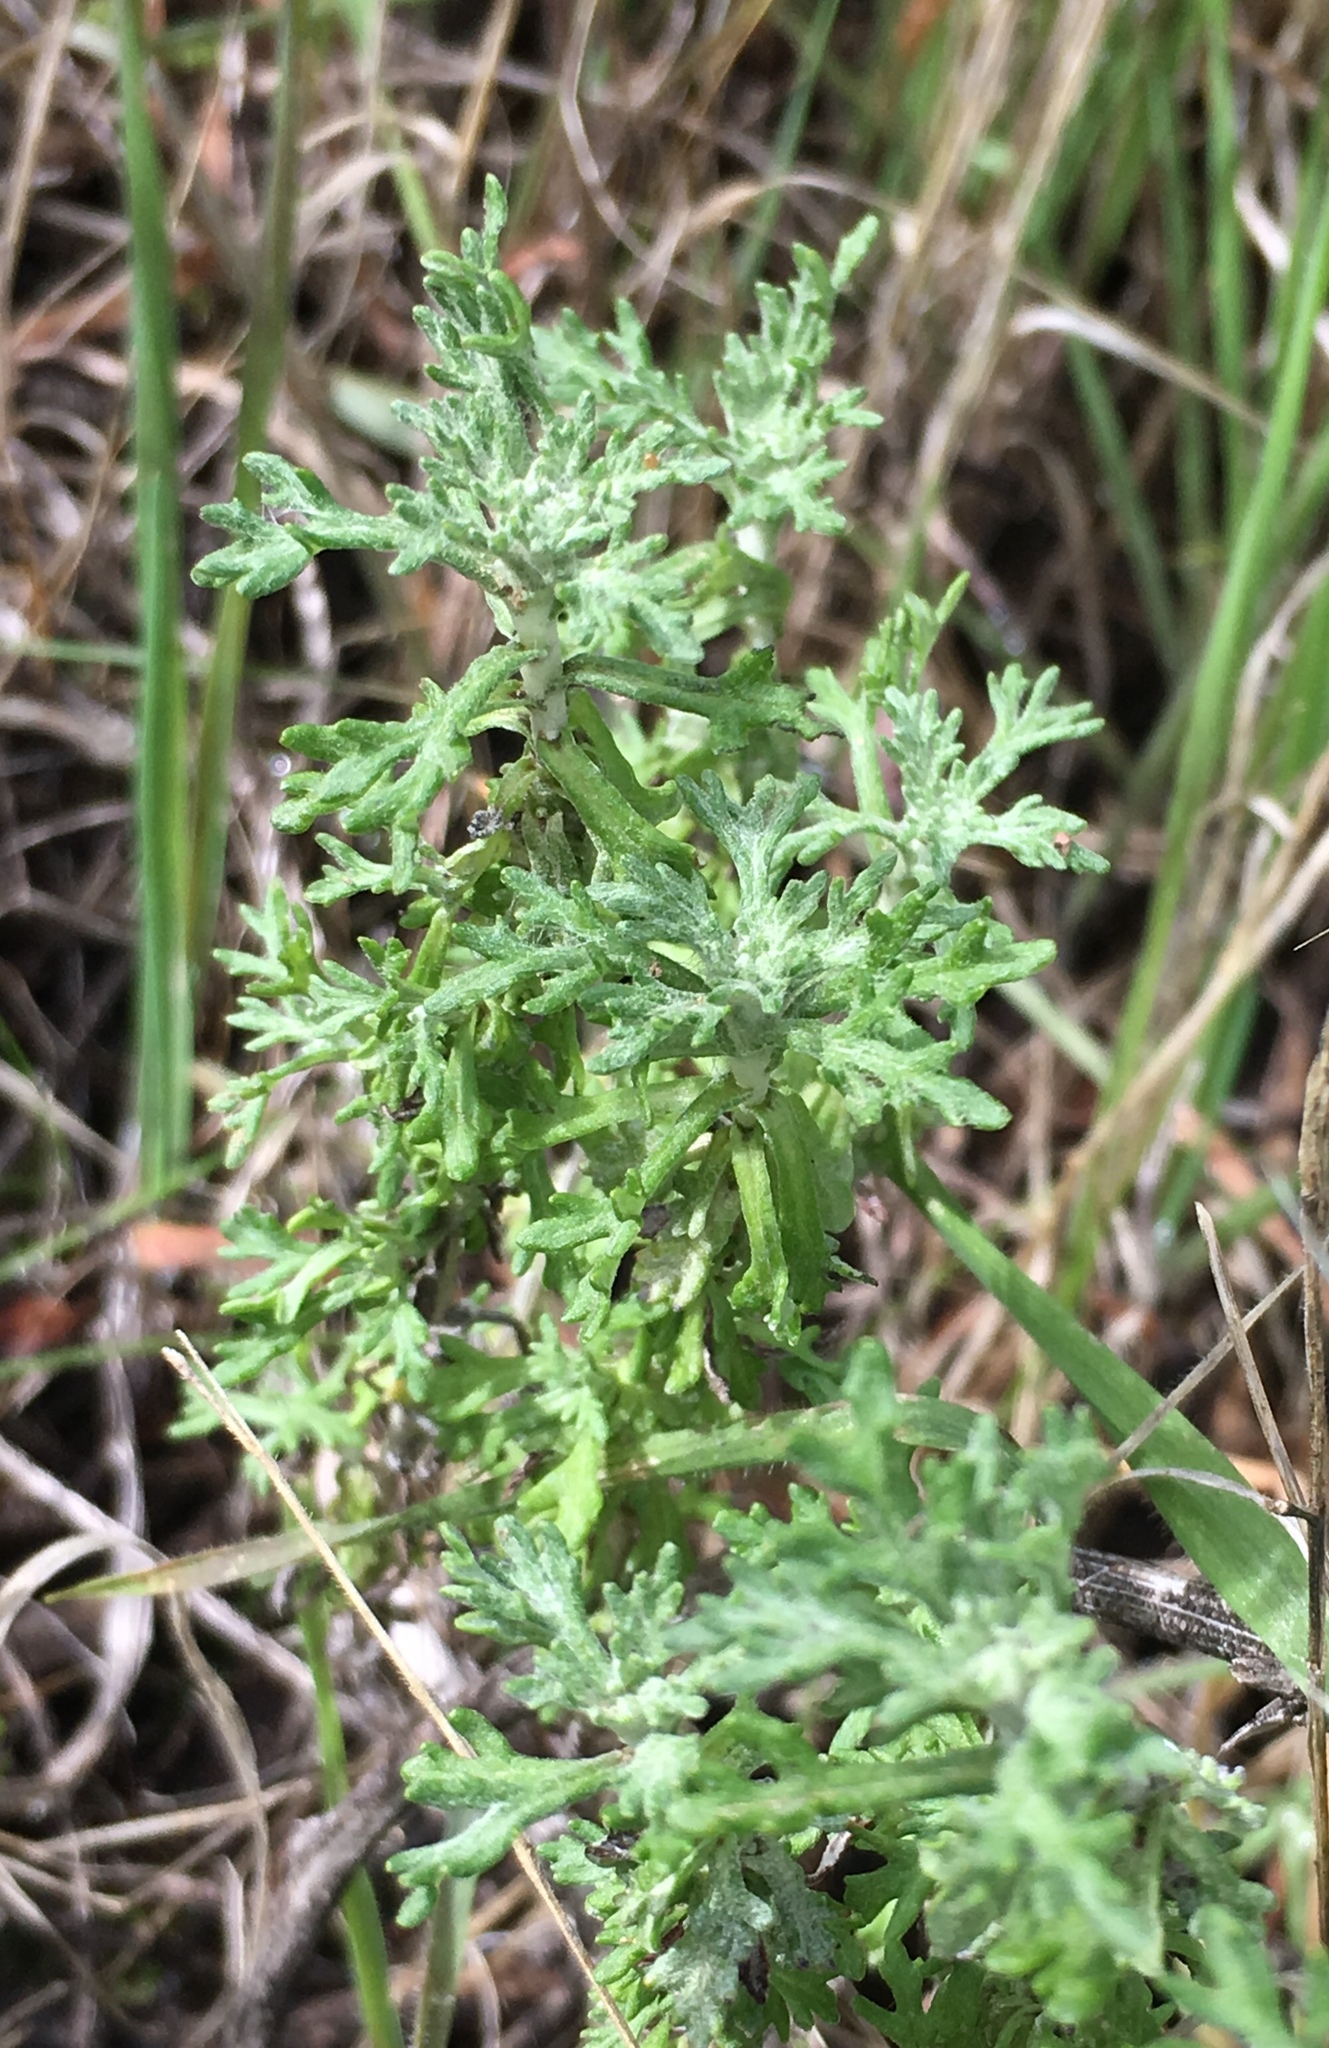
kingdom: Plantae
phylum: Tracheophyta
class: Magnoliopsida
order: Asterales
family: Asteraceae
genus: Eriophyllum
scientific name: Eriophyllum confertiflorum
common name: Golden-yarrow
